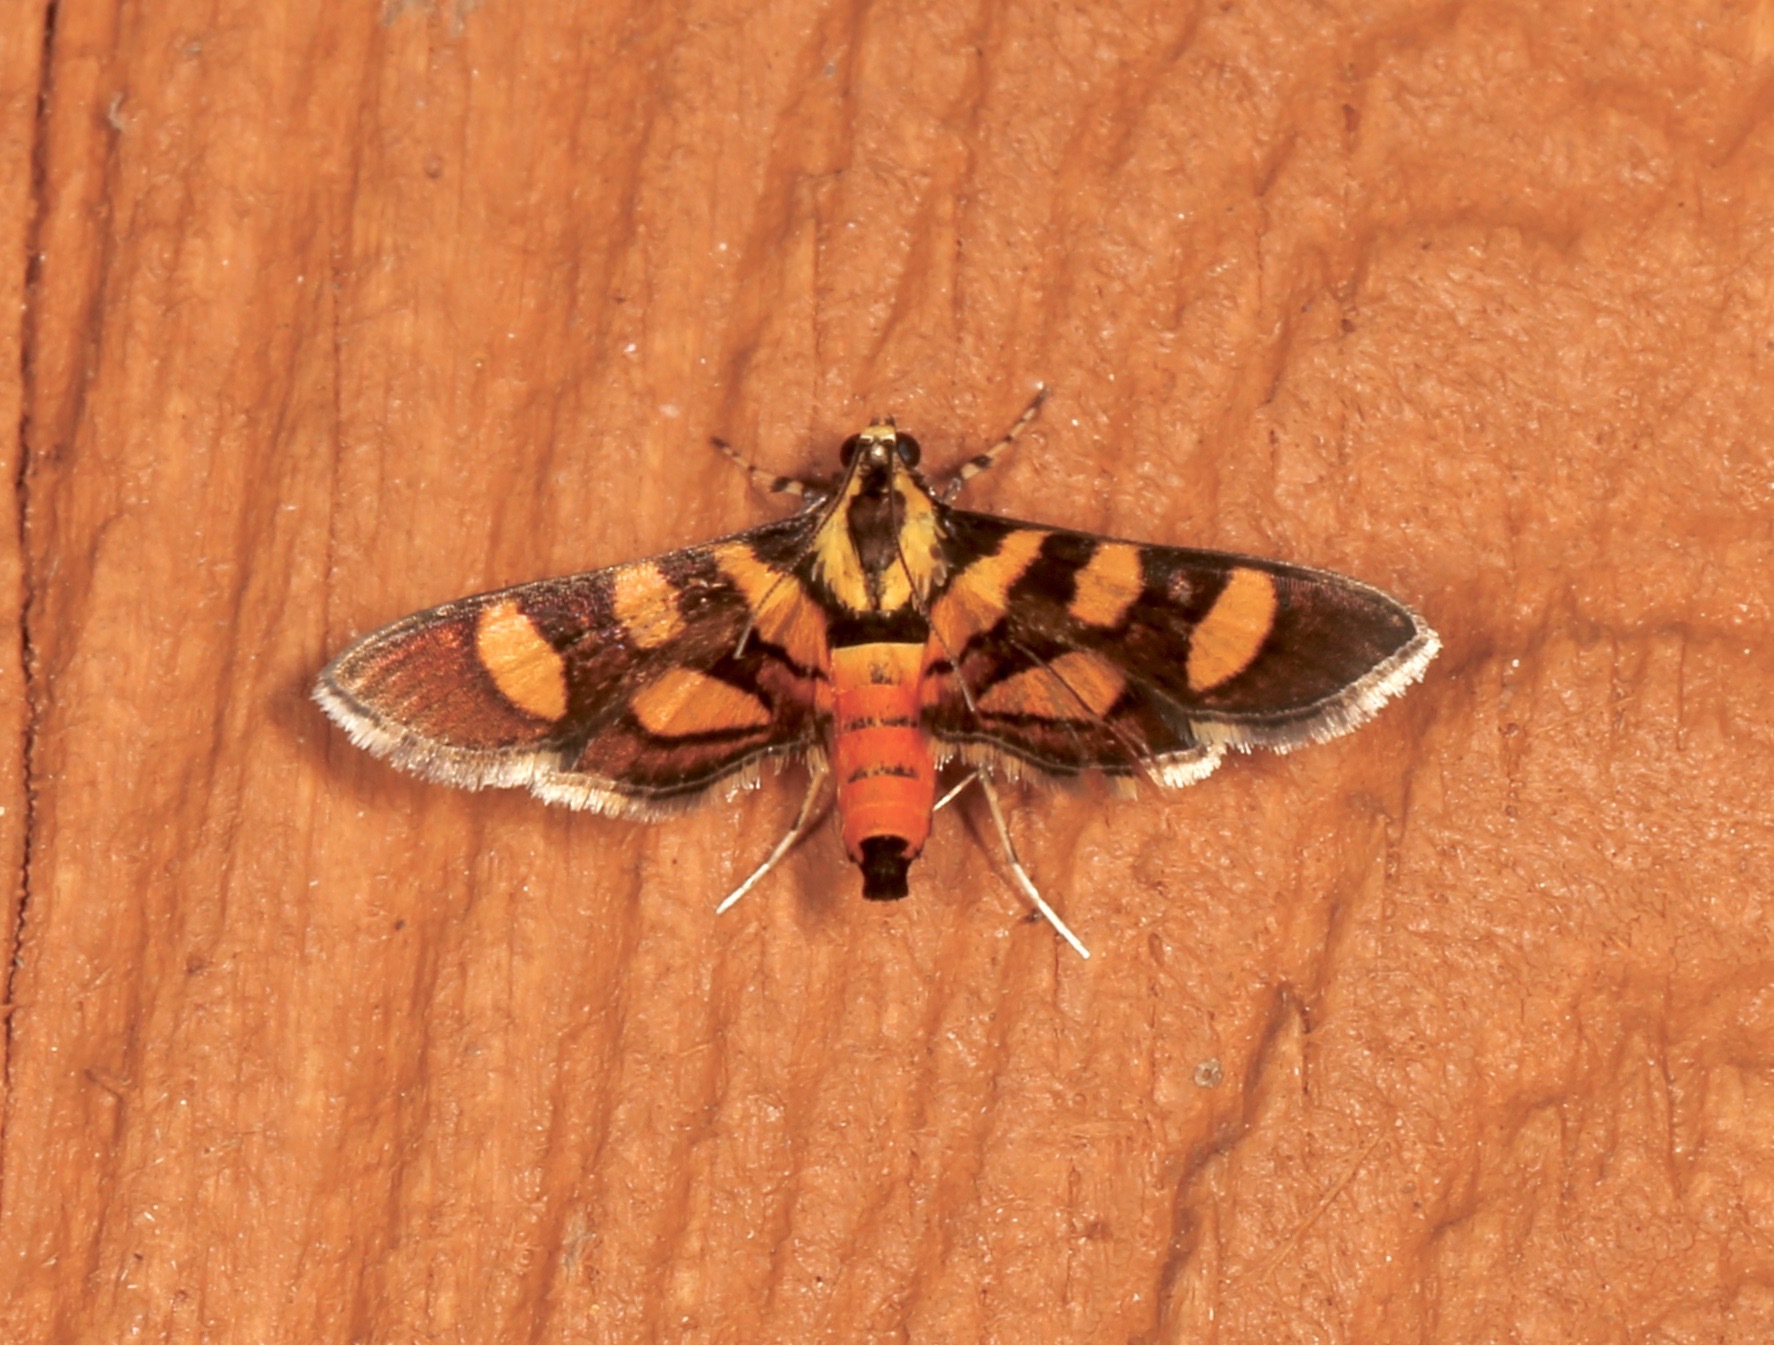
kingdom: Animalia
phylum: Arthropoda
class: Insecta
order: Lepidoptera
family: Crambidae
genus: Syngamia
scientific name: Syngamia florella
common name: Orange-spotted flower moth
